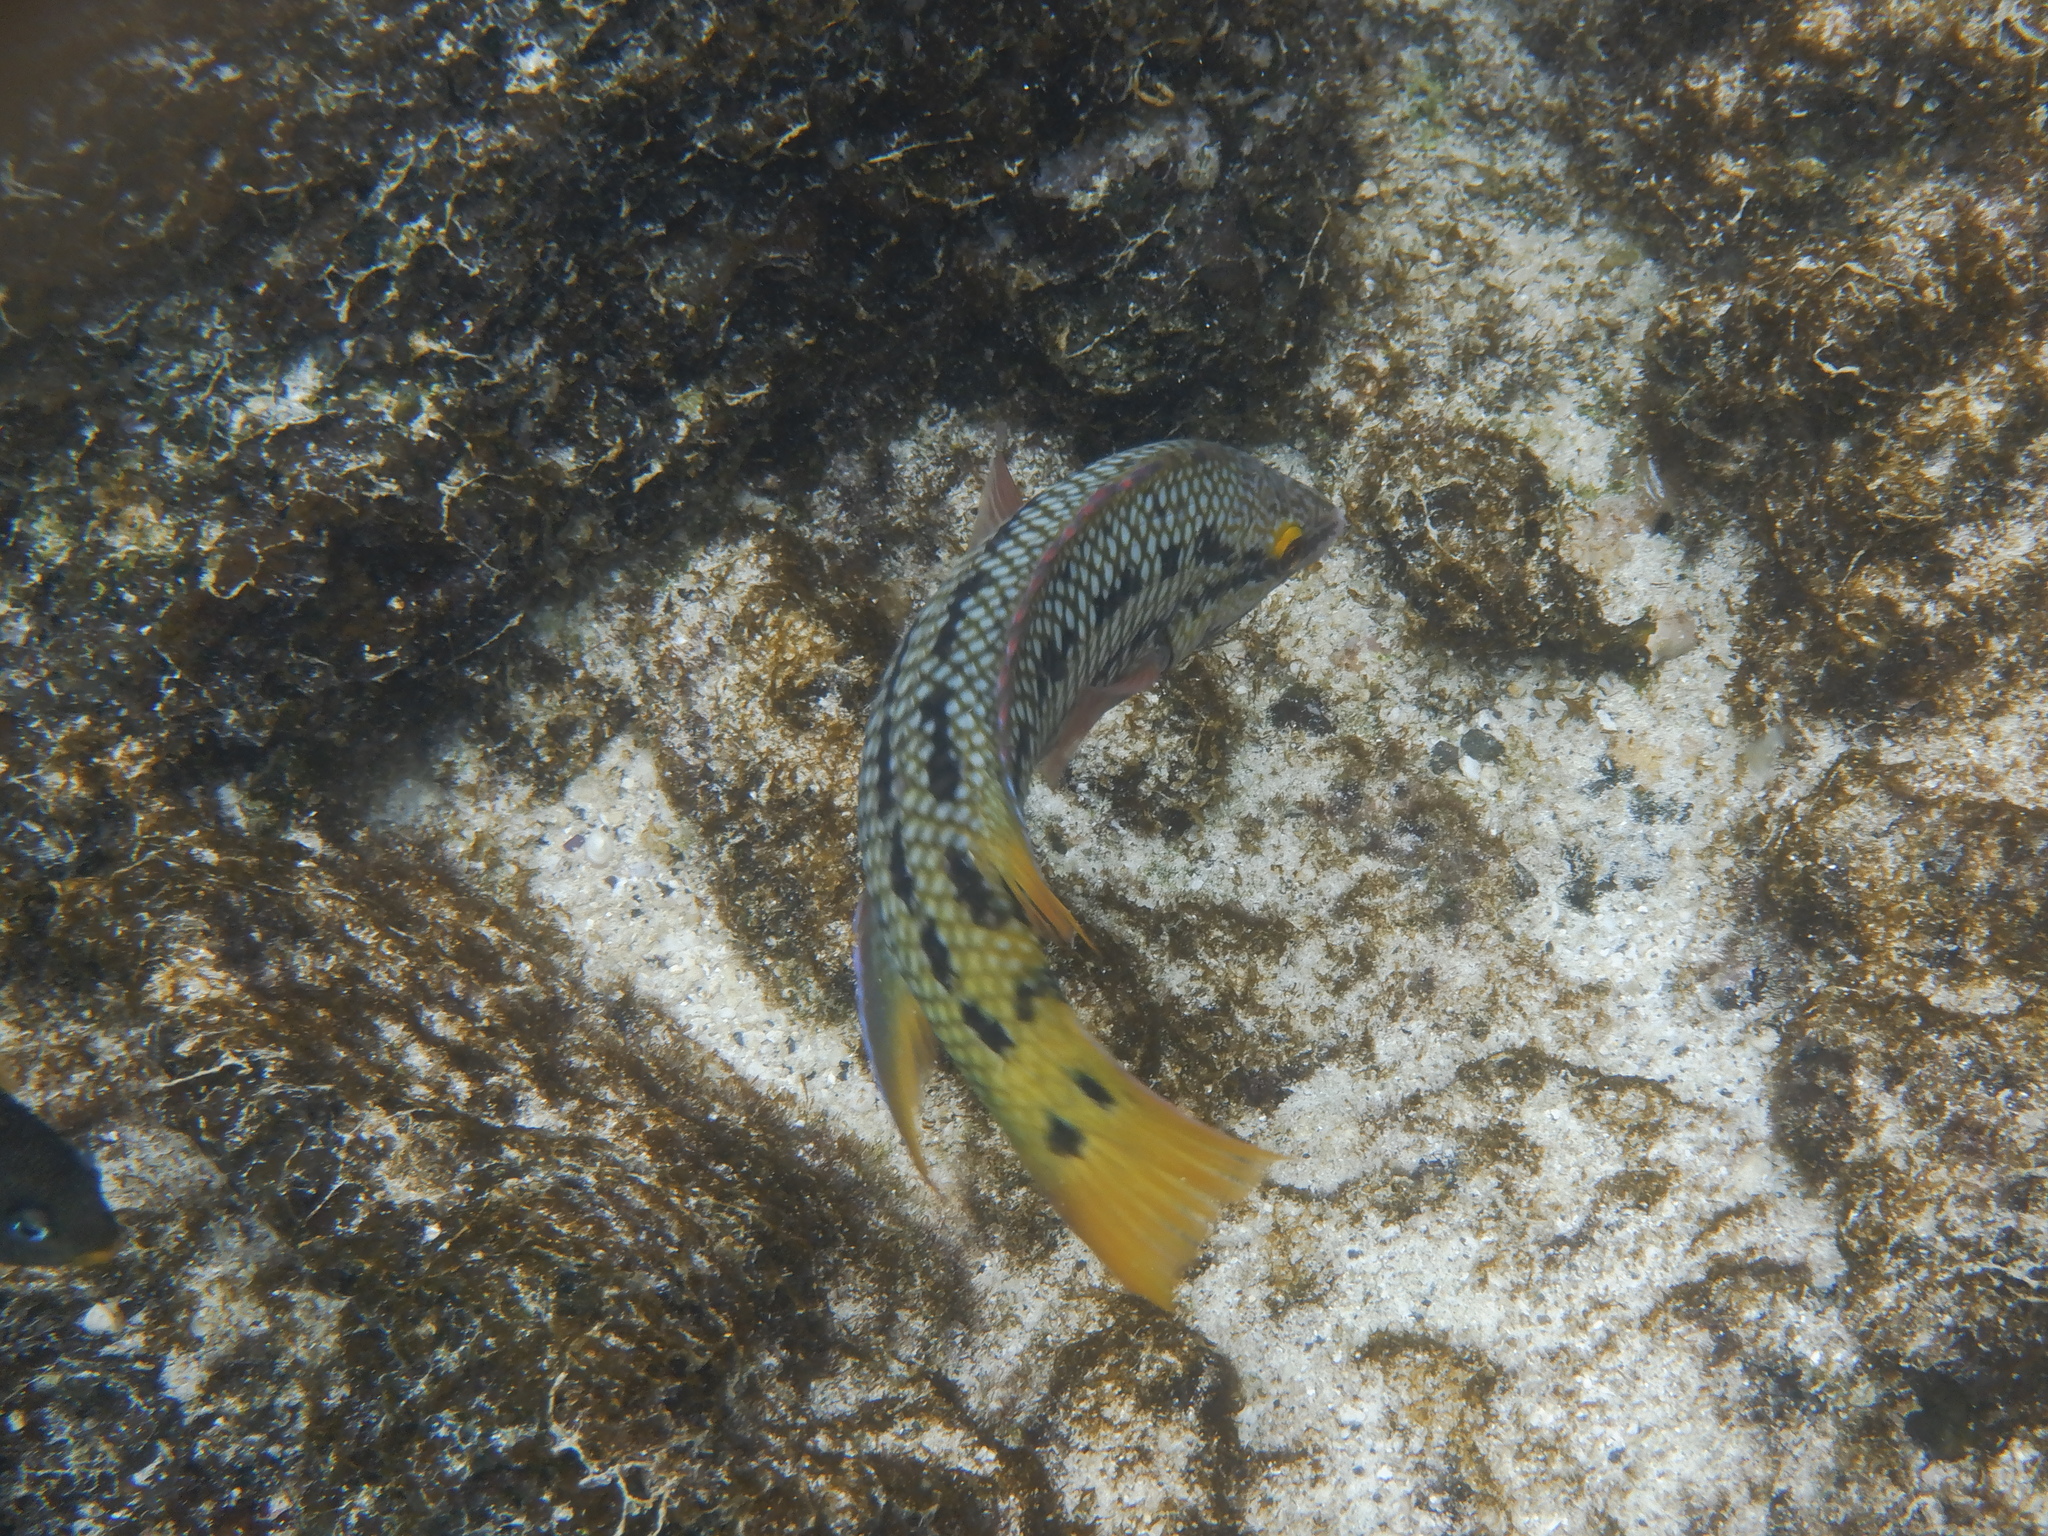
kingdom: Animalia
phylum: Chordata
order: Perciformes
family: Labridae
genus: Bodianus
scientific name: Bodianus diplotaenia
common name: Mexican hogfish
